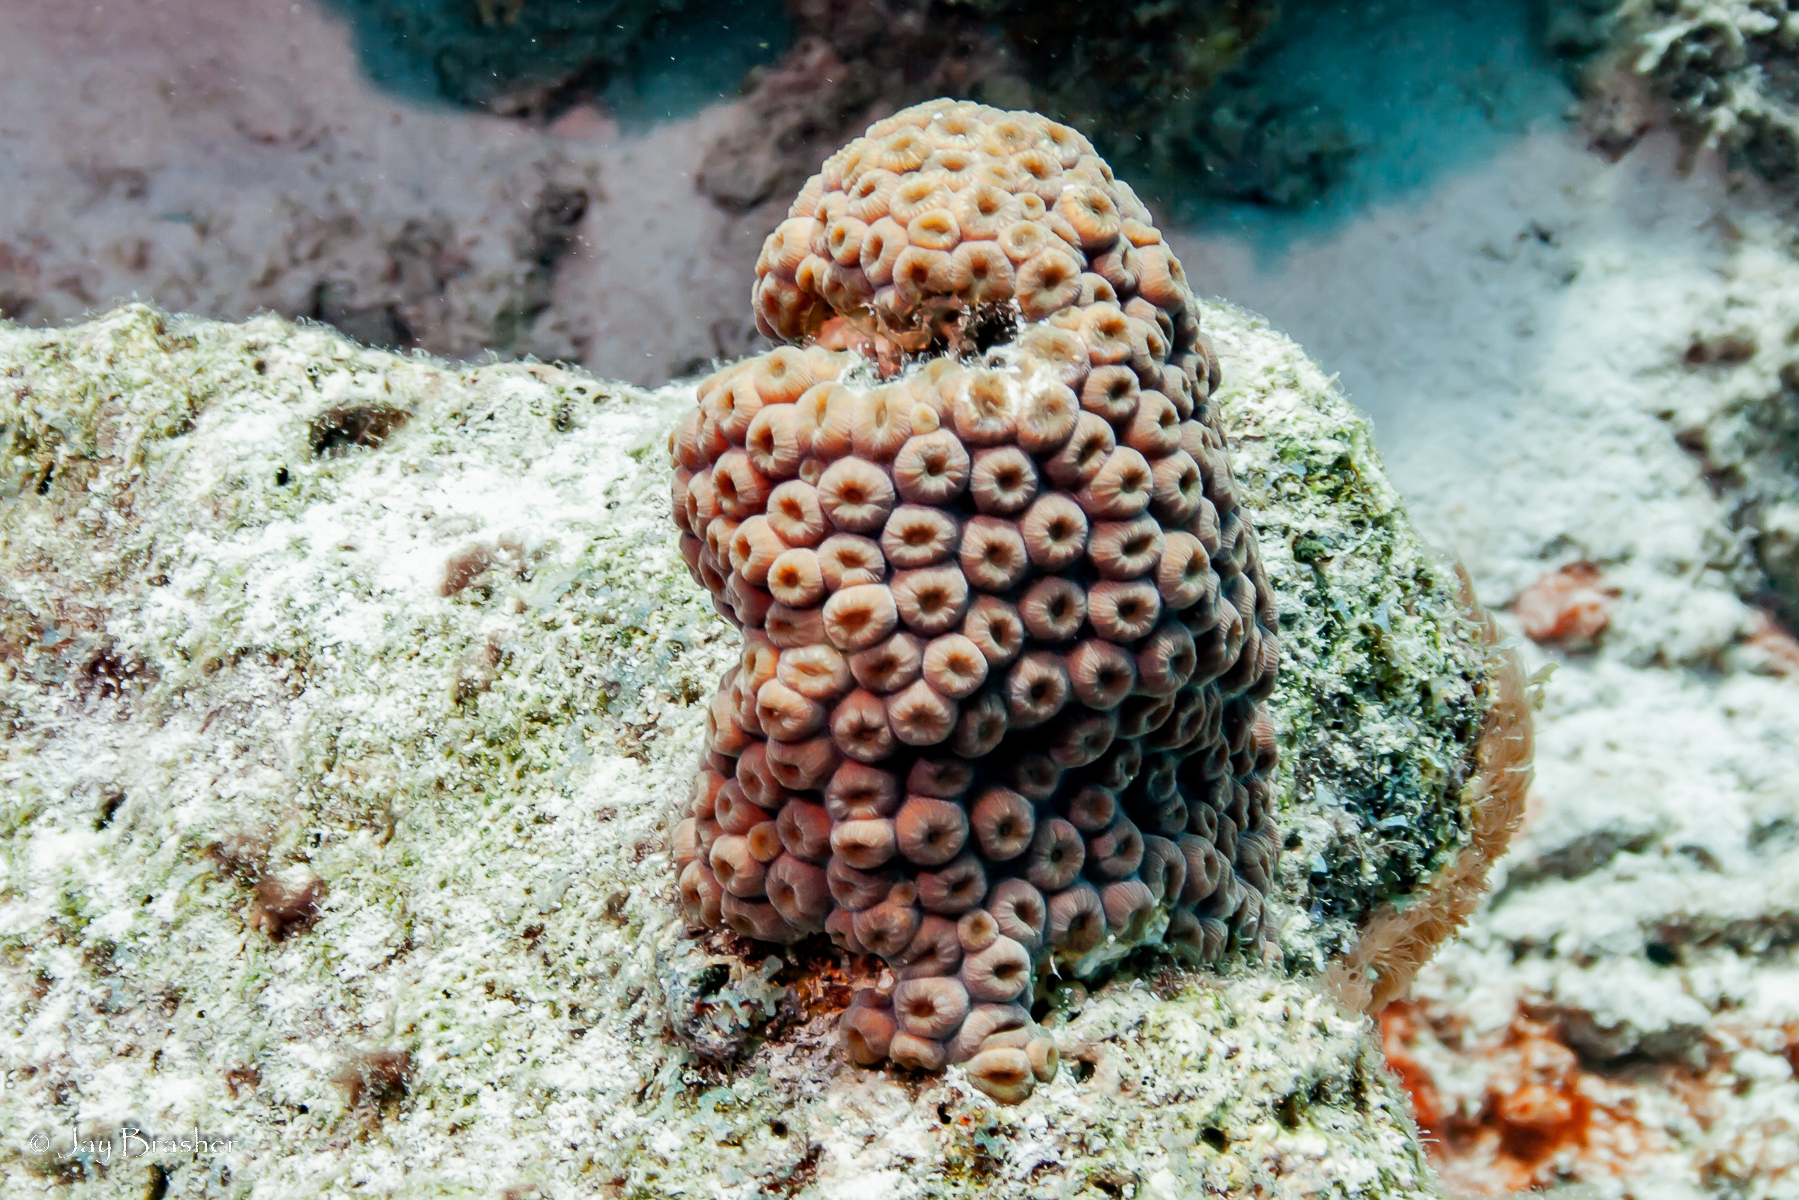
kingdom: Animalia
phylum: Cnidaria
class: Anthozoa
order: Scleractinia
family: Montastraeidae
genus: Montastraea
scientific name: Montastraea cavernosa
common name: Great star coral
